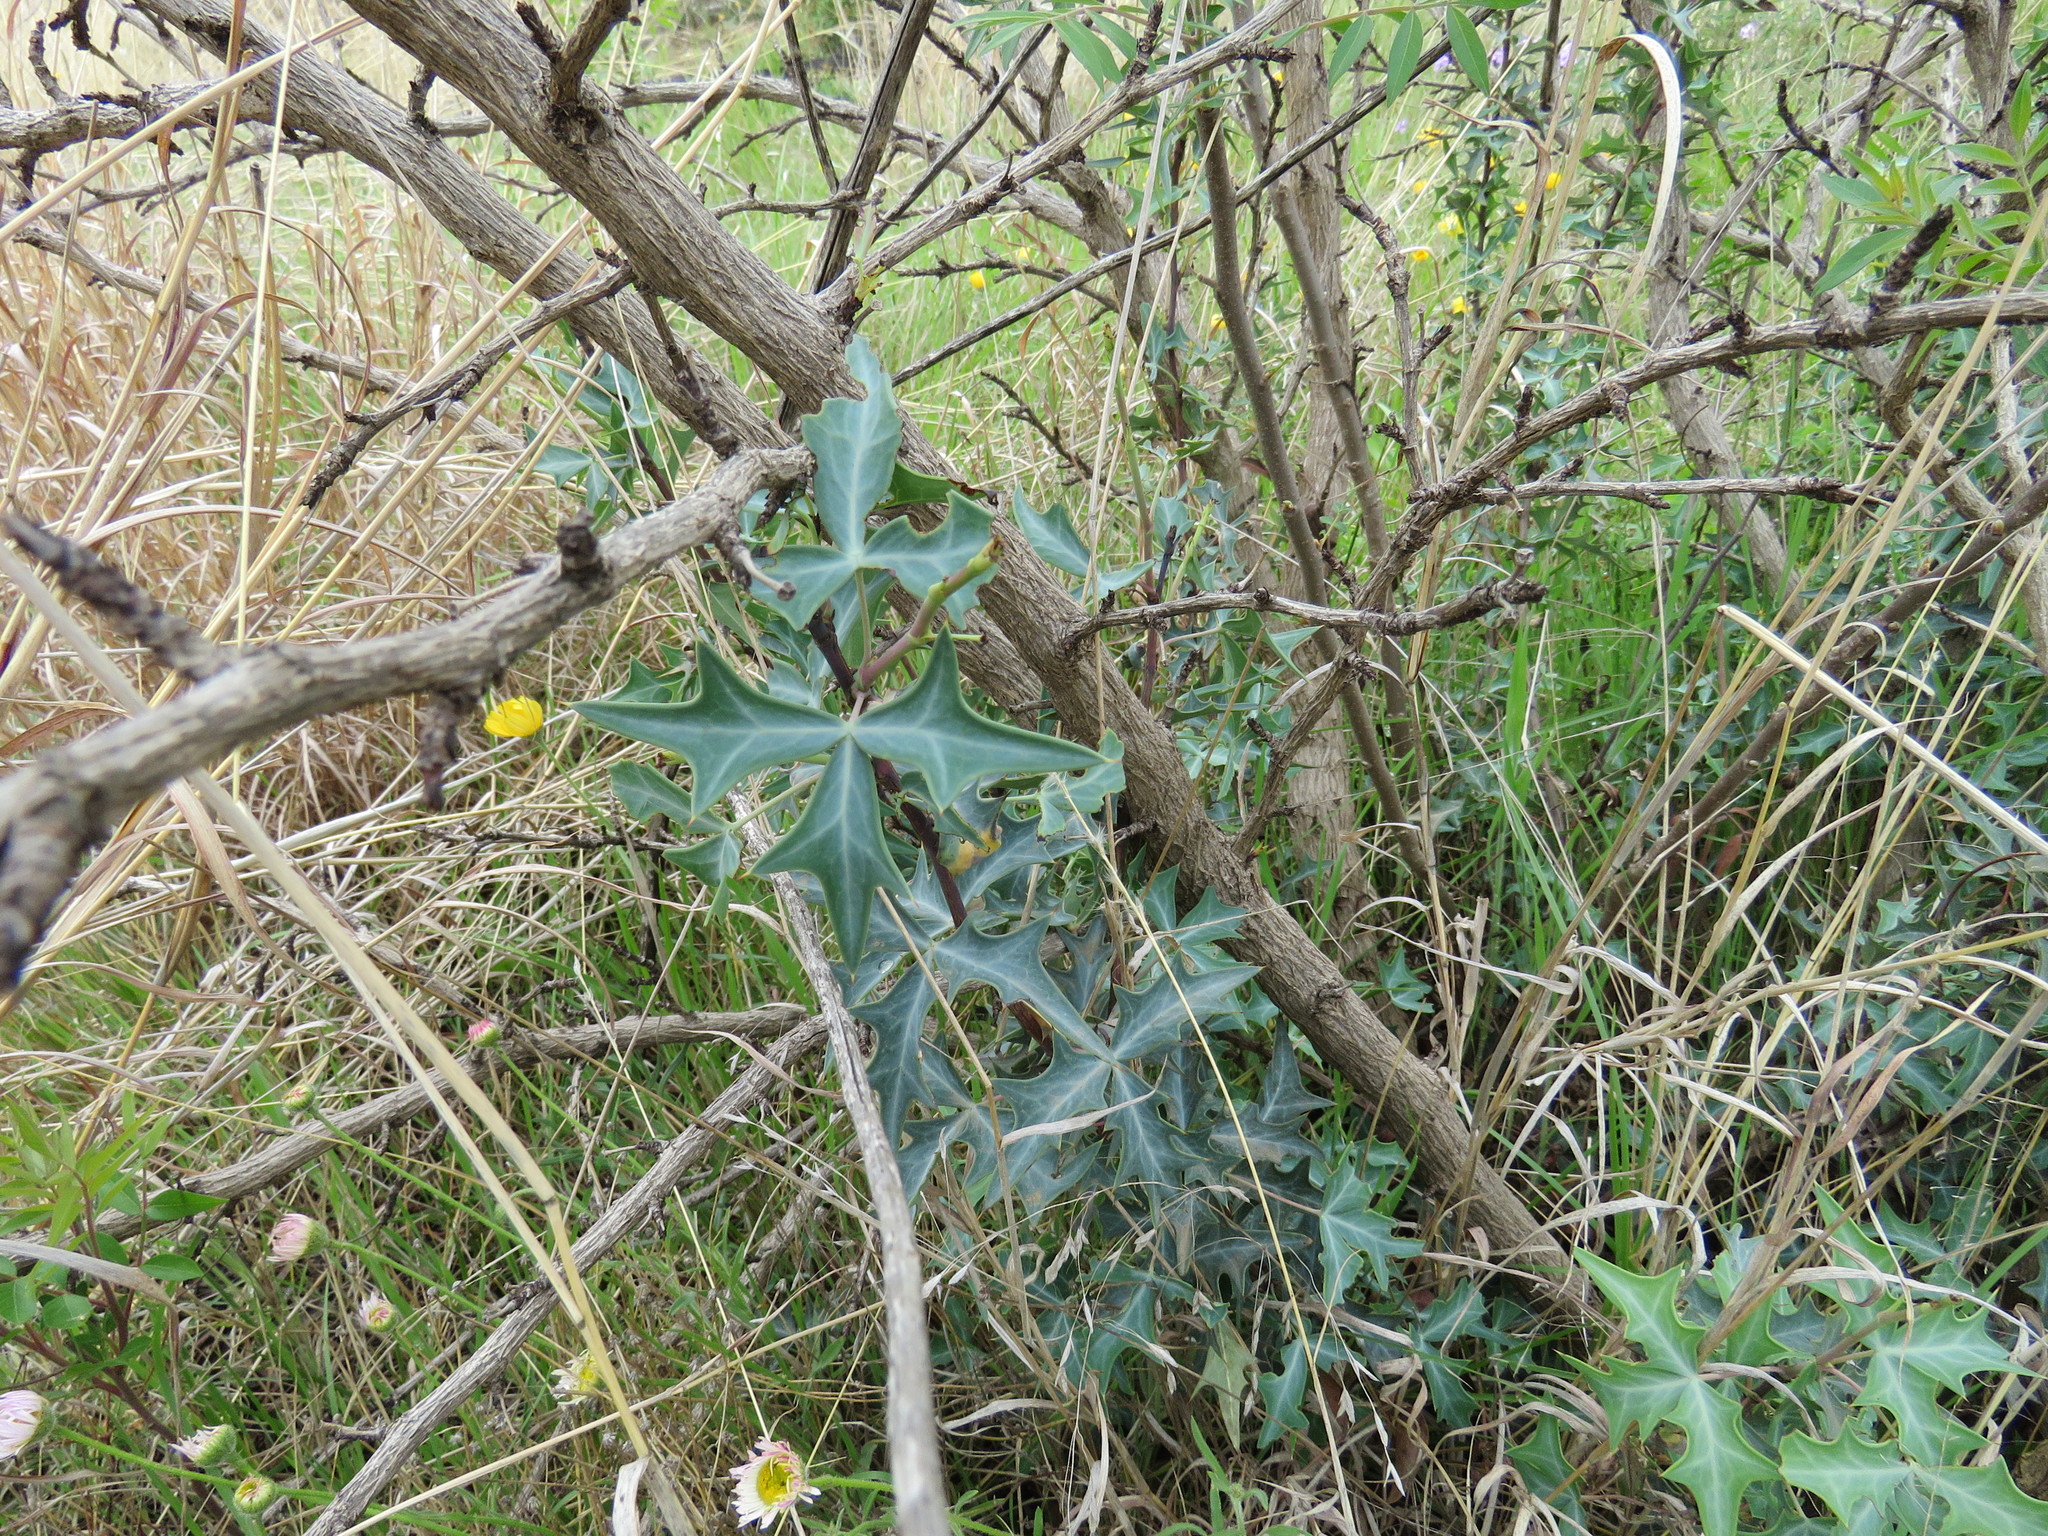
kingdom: Plantae
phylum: Tracheophyta
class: Magnoliopsida
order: Ranunculales
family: Berberidaceae
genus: Alloberberis
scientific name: Alloberberis trifoliolata
